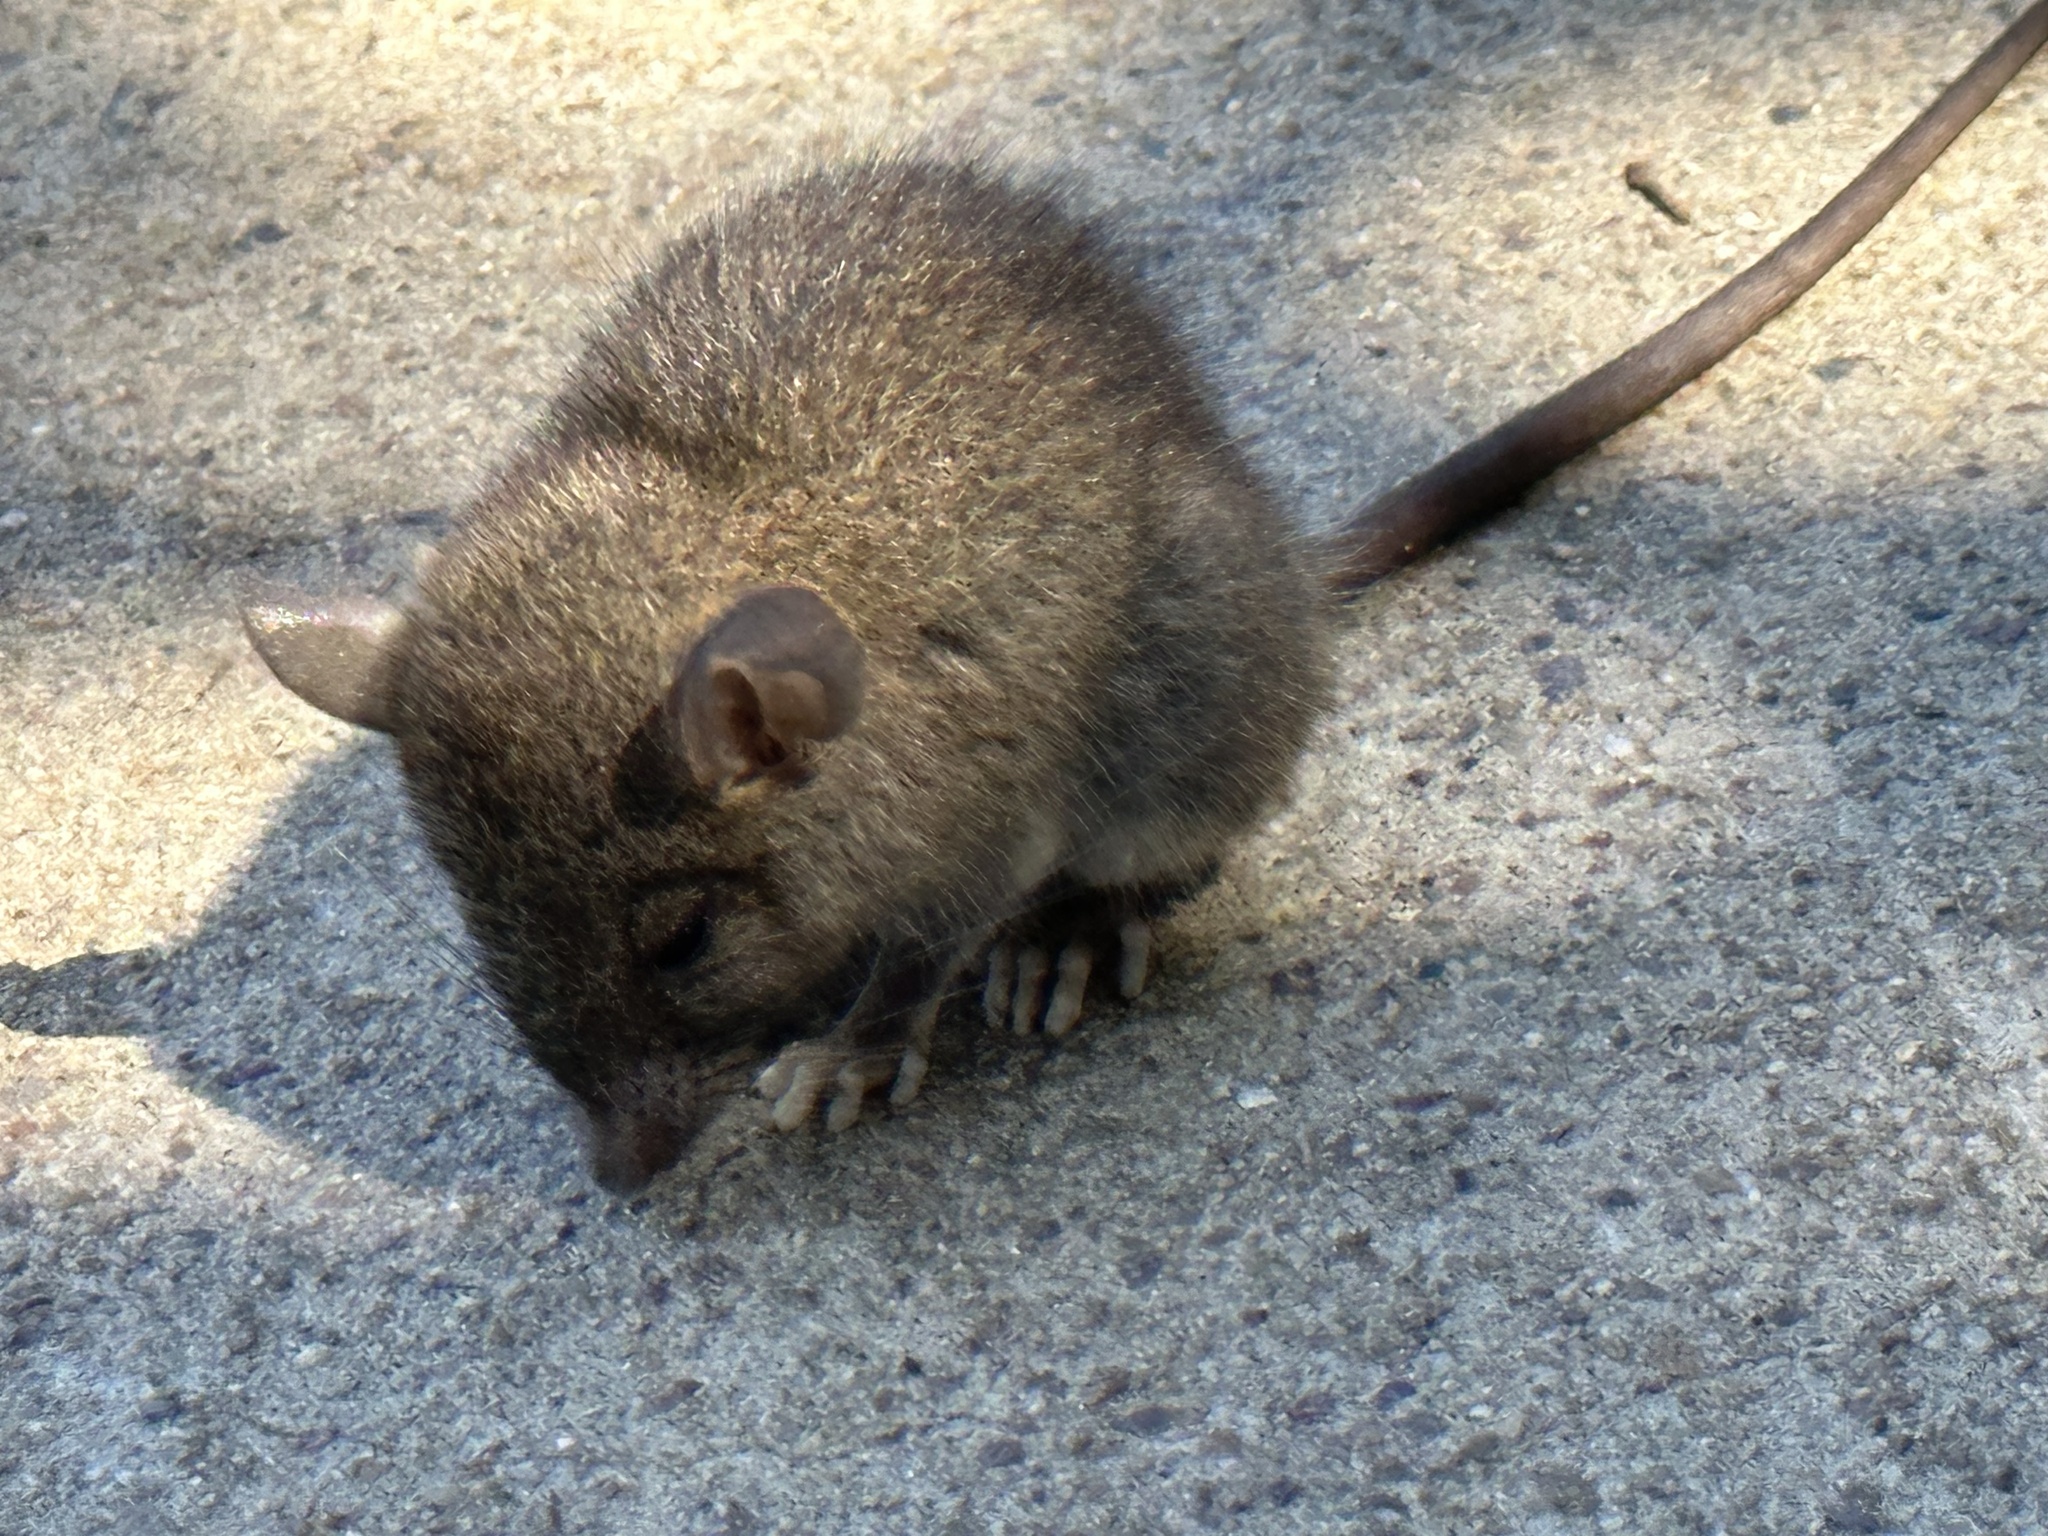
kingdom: Animalia
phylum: Chordata
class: Mammalia
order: Rodentia
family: Muridae
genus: Rattus
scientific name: Rattus rattus
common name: Black rat
